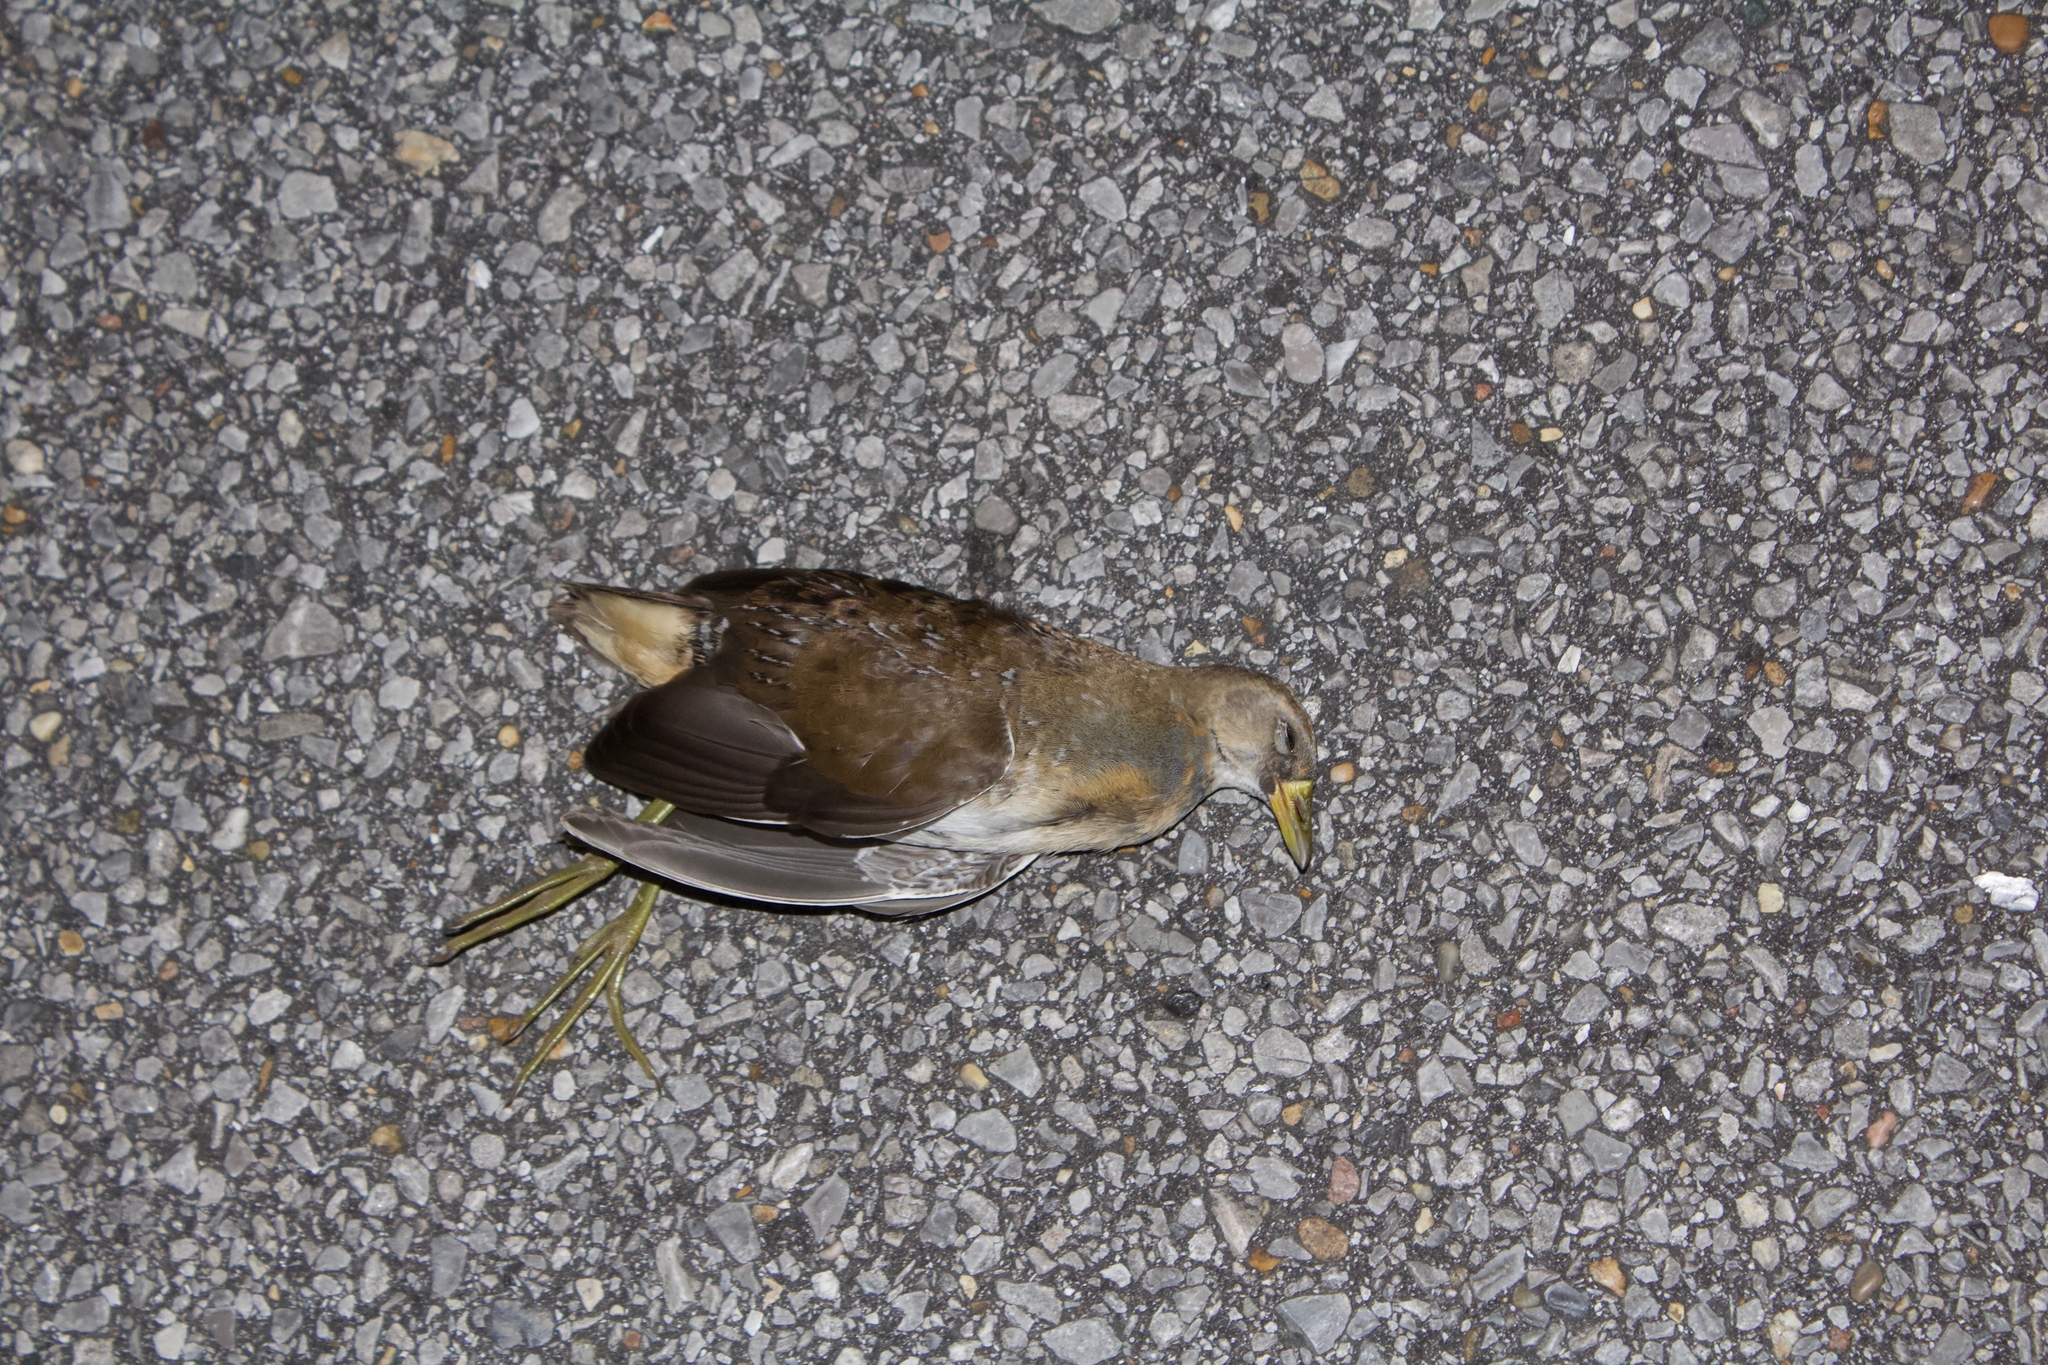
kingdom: Animalia
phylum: Chordata
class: Aves
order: Gruiformes
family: Rallidae
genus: Porzana
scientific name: Porzana carolina
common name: Sora
